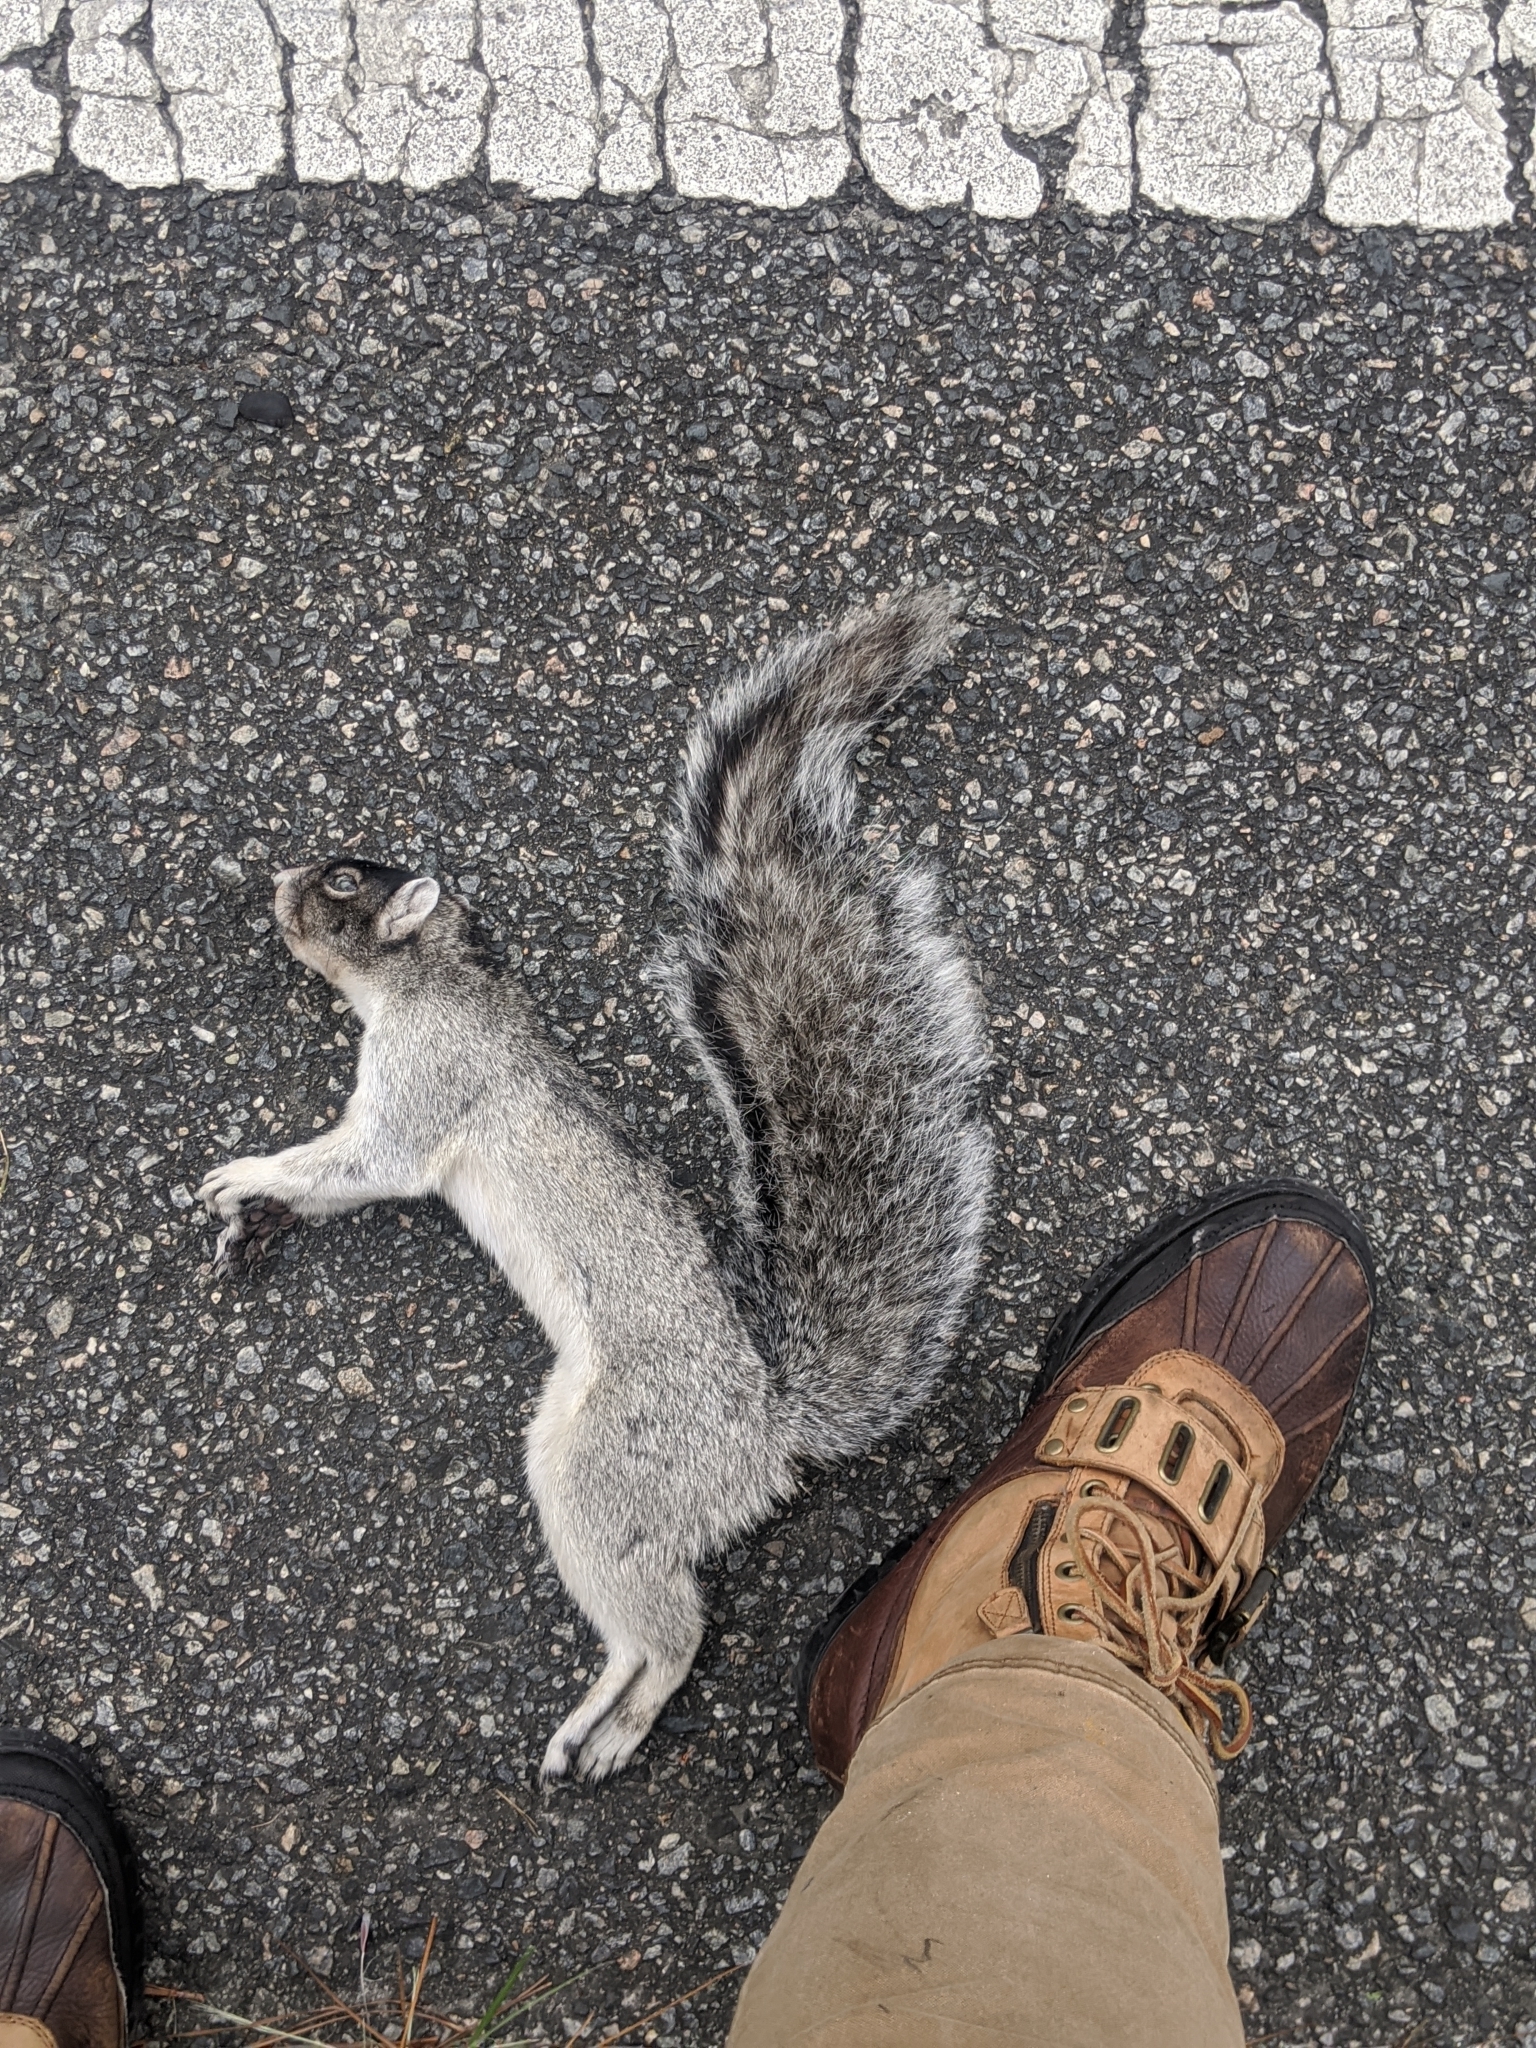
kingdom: Animalia
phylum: Chordata
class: Mammalia
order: Rodentia
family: Sciuridae
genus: Sciurus
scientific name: Sciurus niger
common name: Fox squirrel
